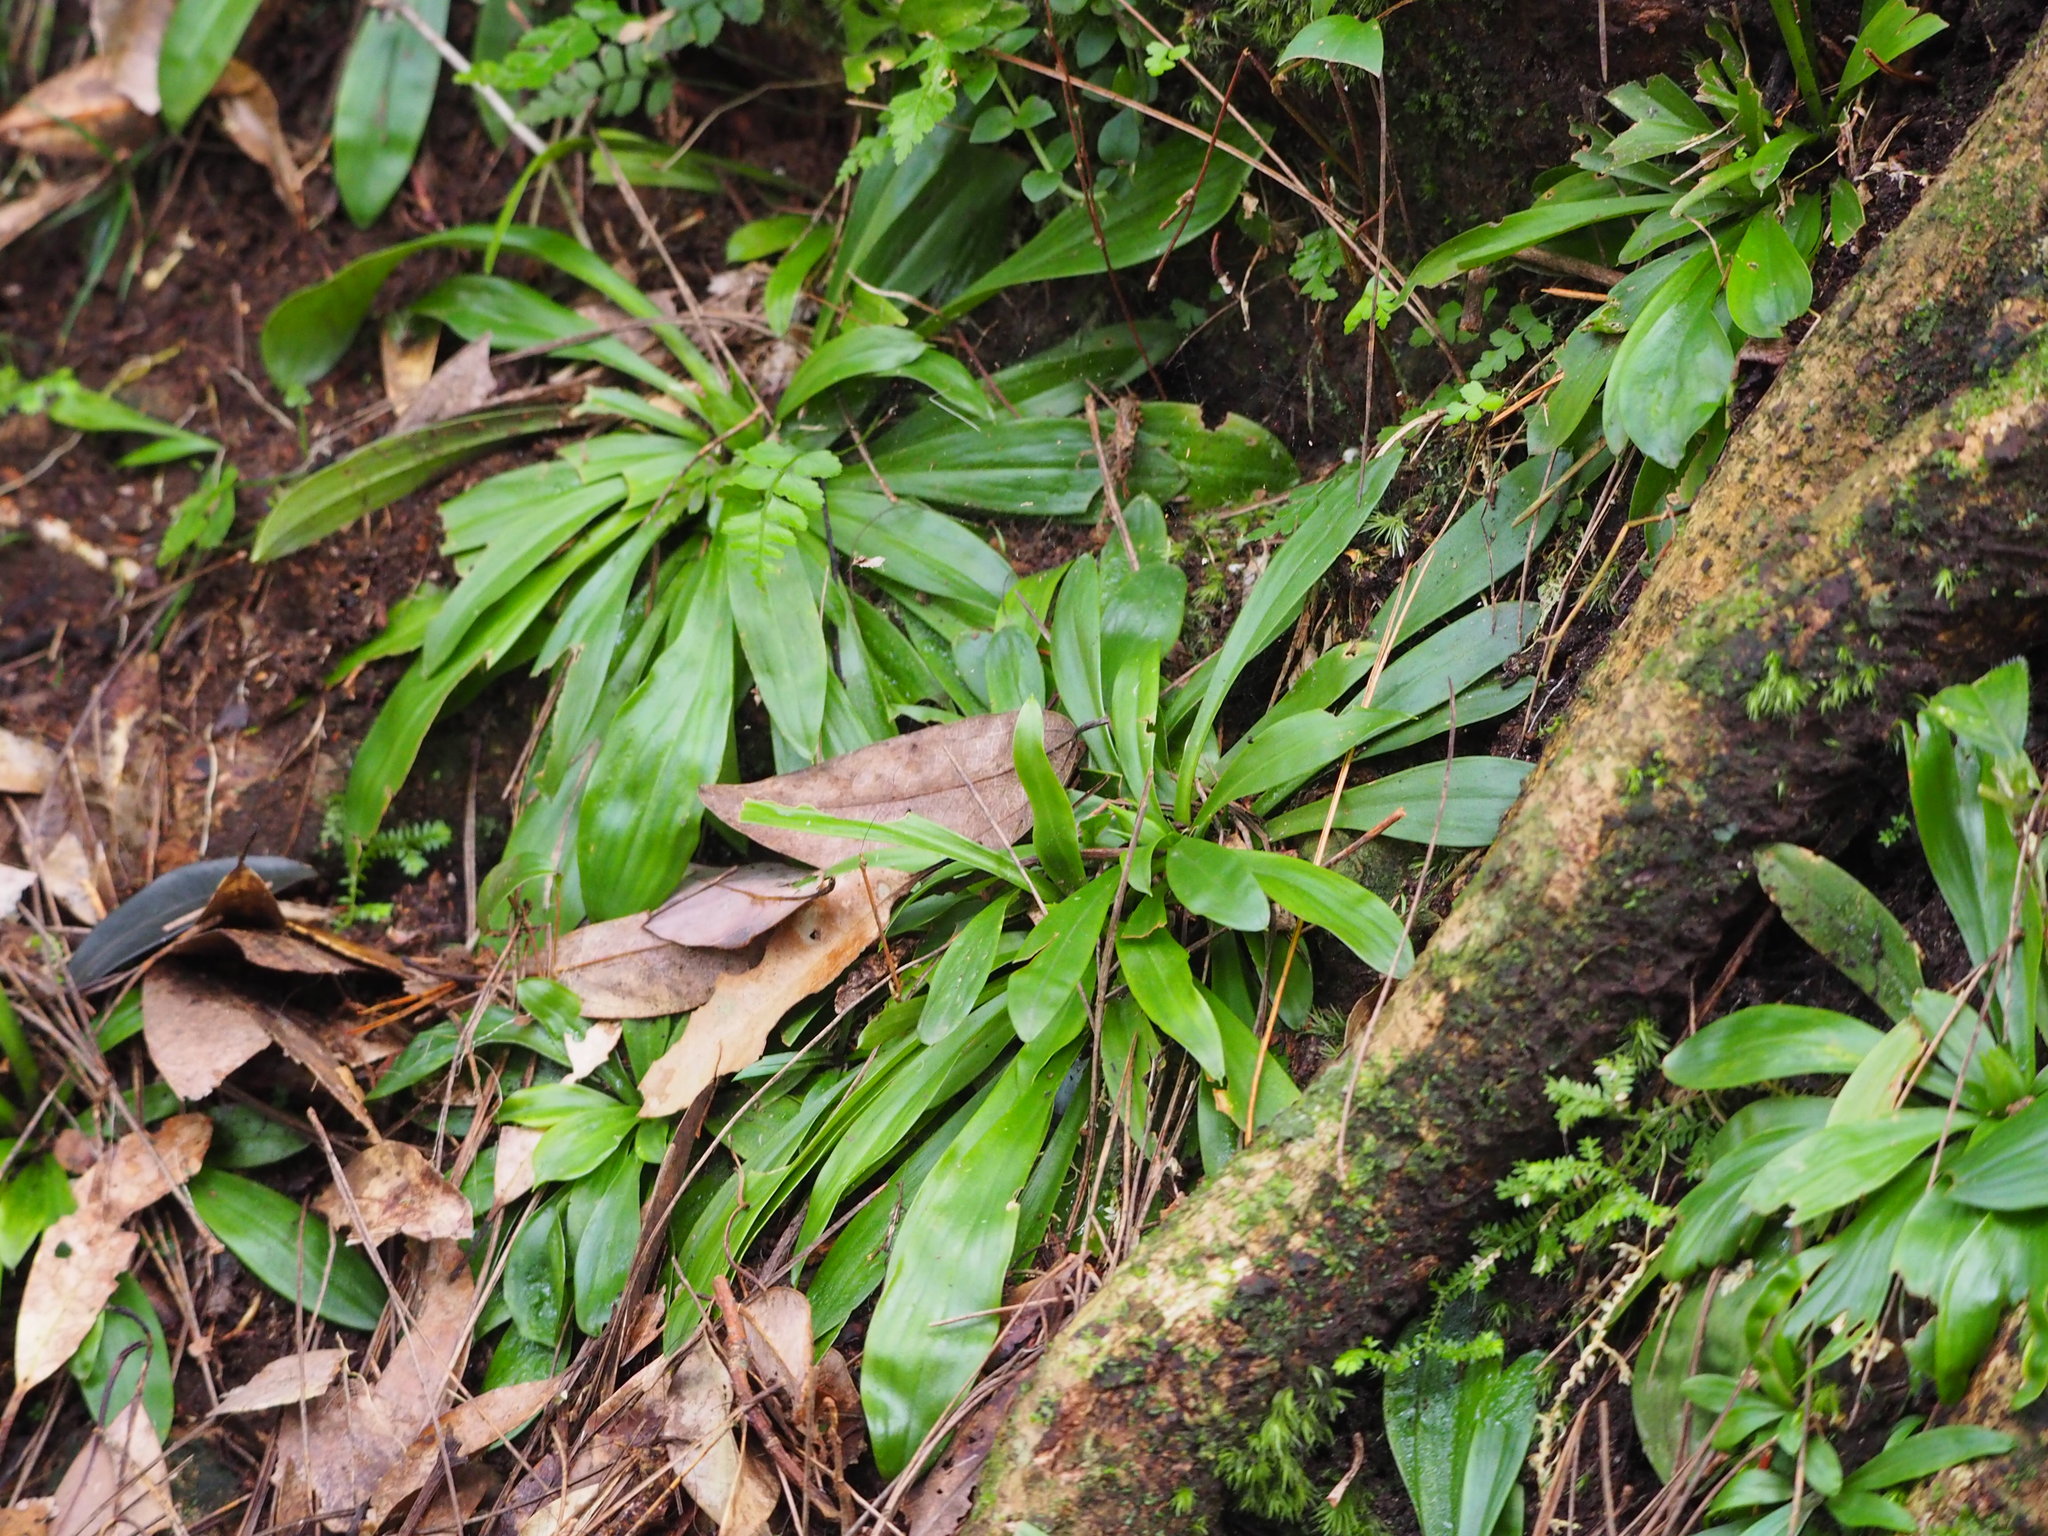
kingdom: Plantae
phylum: Tracheophyta
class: Liliopsida
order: Liliales
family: Melanthiaceae
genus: Helonias
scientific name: Helonias umbellata
